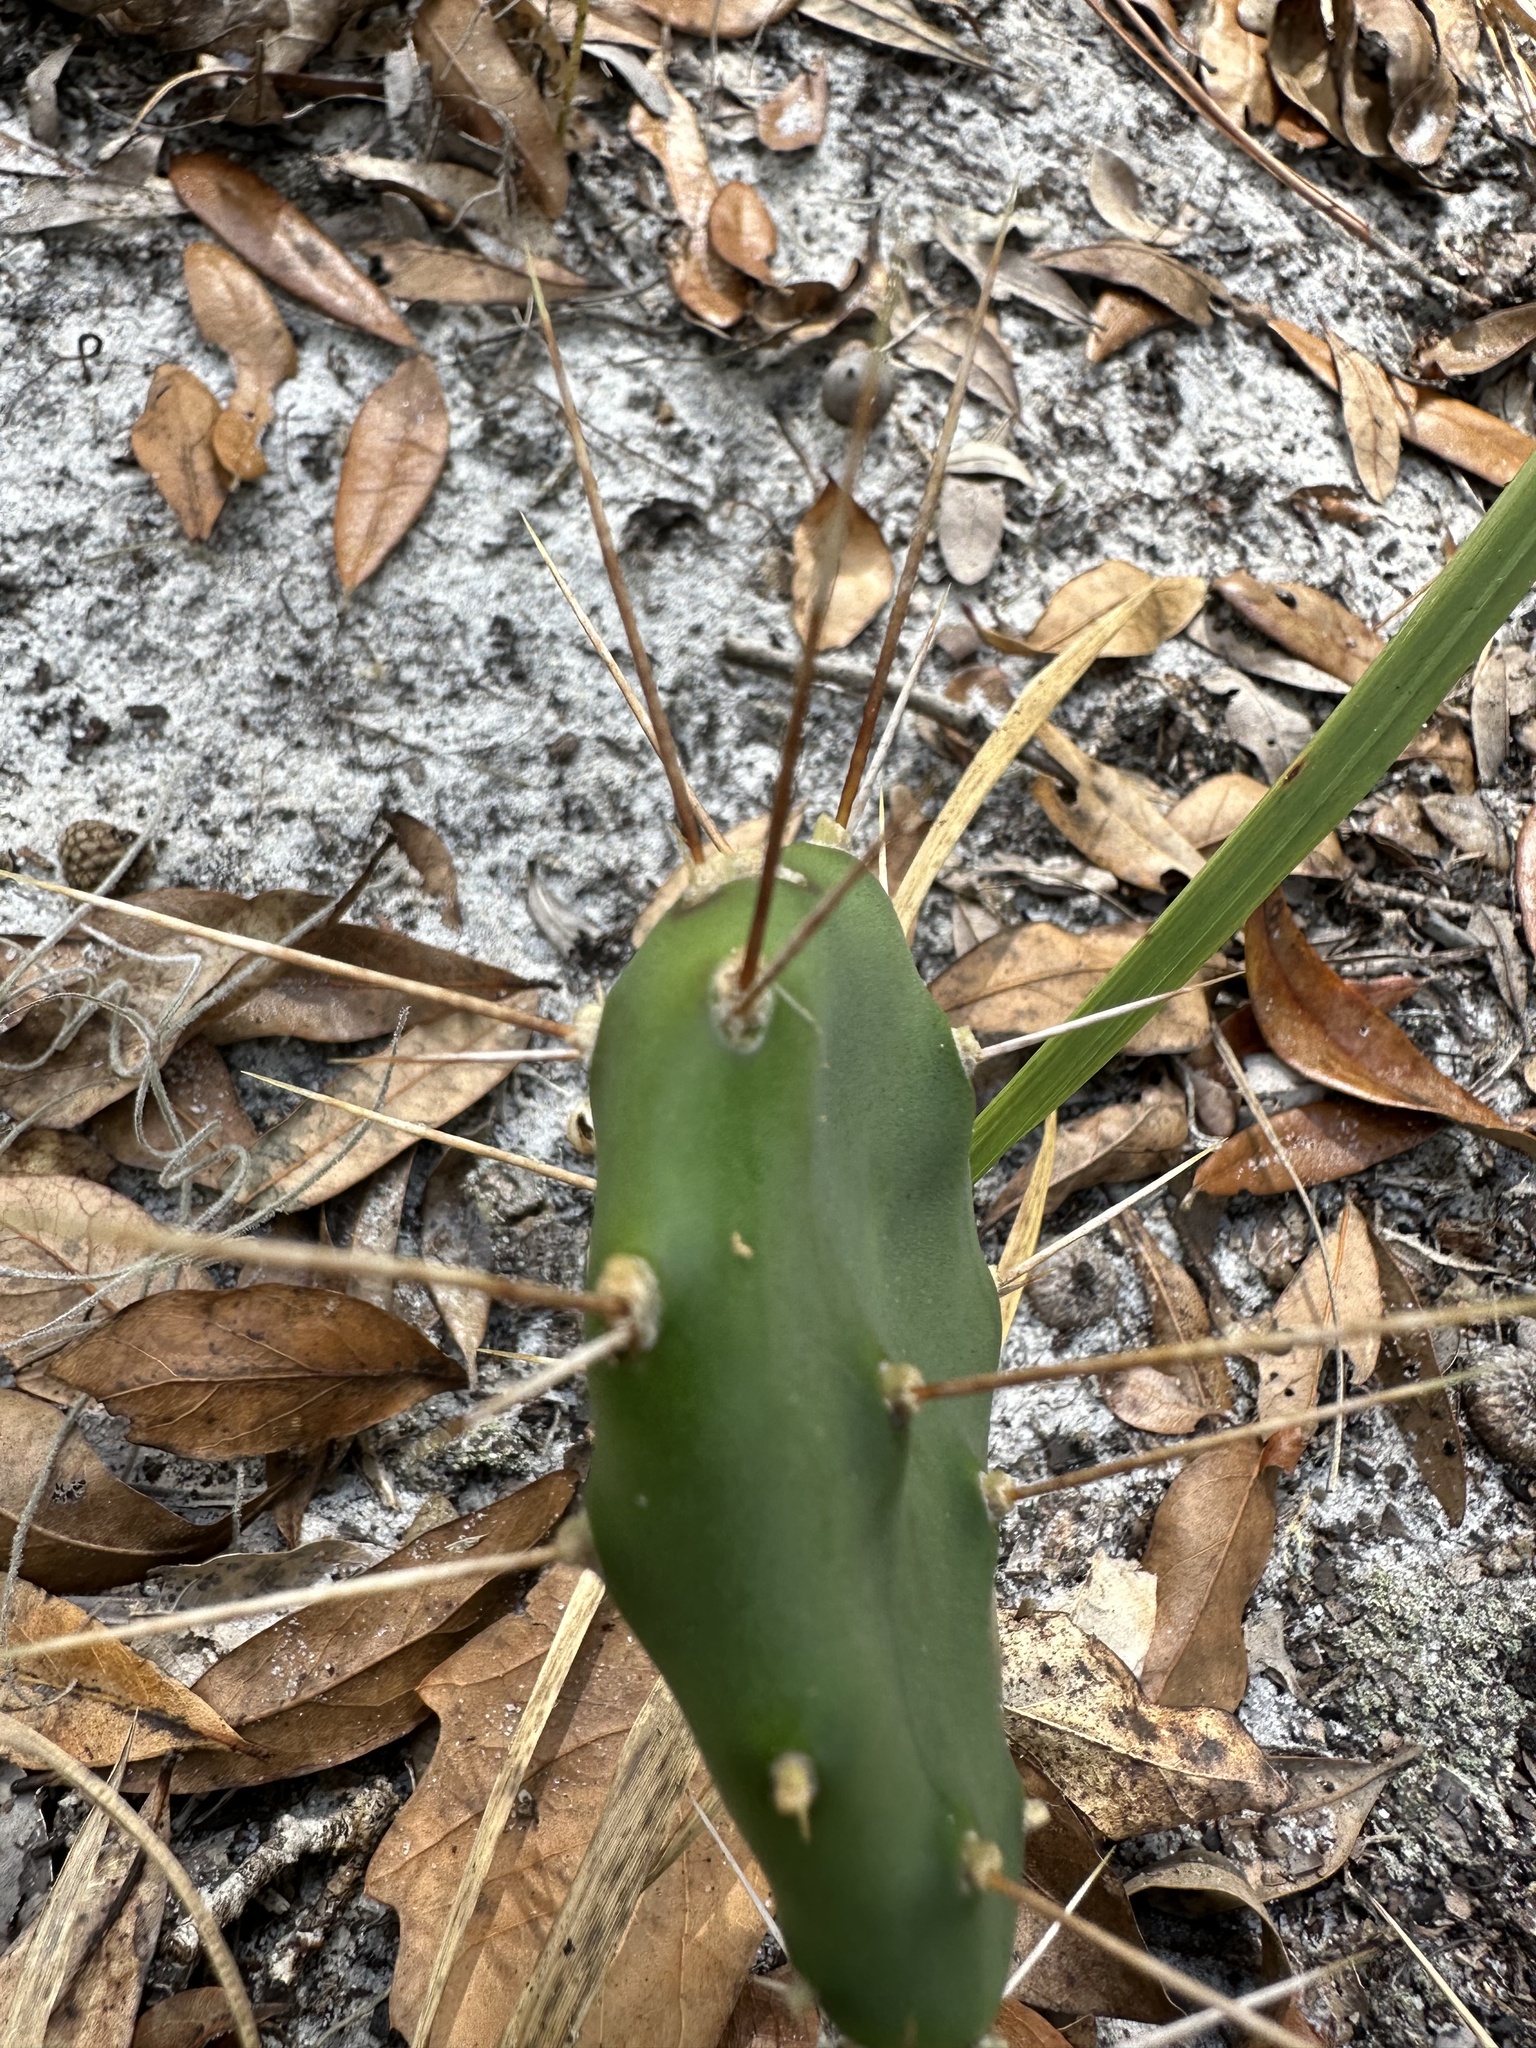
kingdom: Plantae
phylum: Tracheophyta
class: Magnoliopsida
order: Caryophyllales
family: Cactaceae
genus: Opuntia
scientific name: Opuntia austrina
